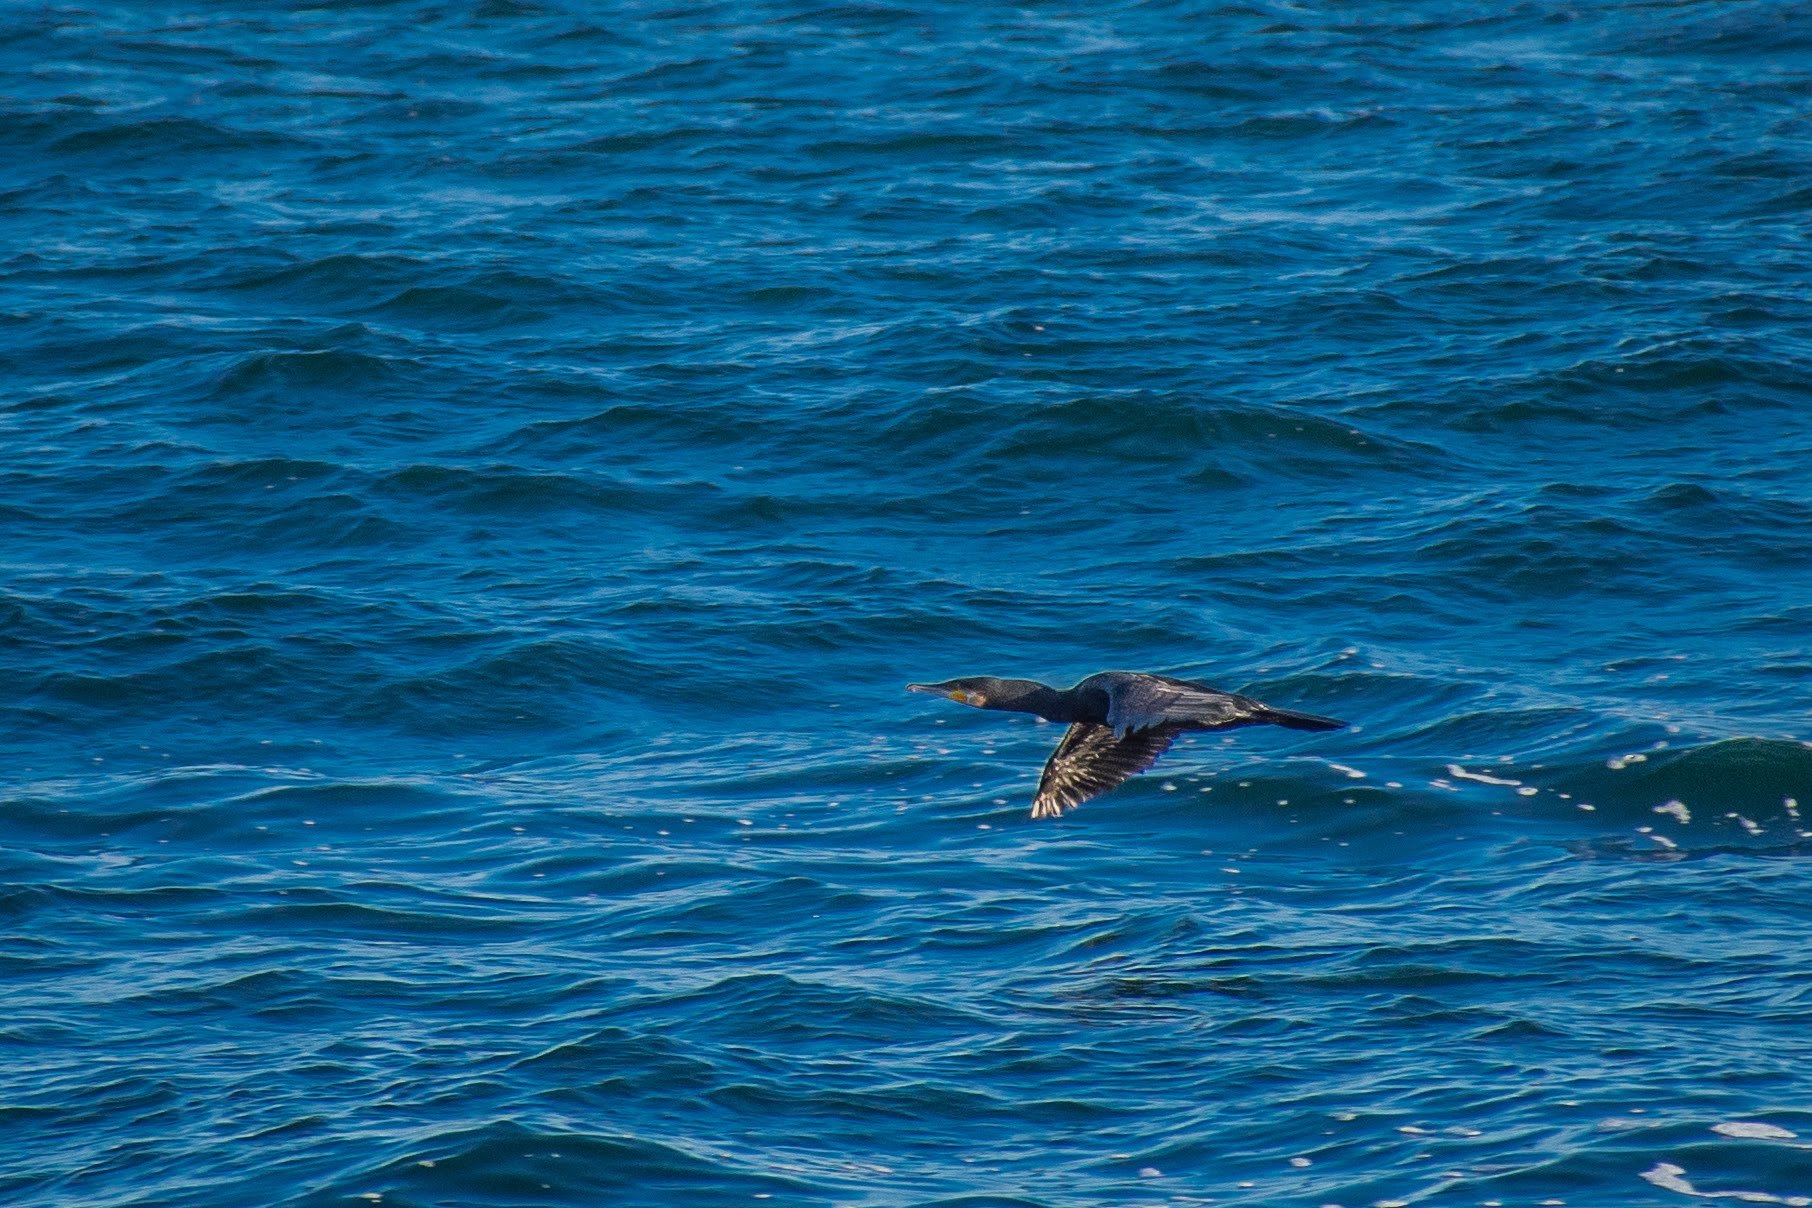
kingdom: Animalia
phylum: Chordata
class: Aves
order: Suliformes
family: Phalacrocoracidae
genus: Phalacrocorax
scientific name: Phalacrocorax carbo
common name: Great cormorant
